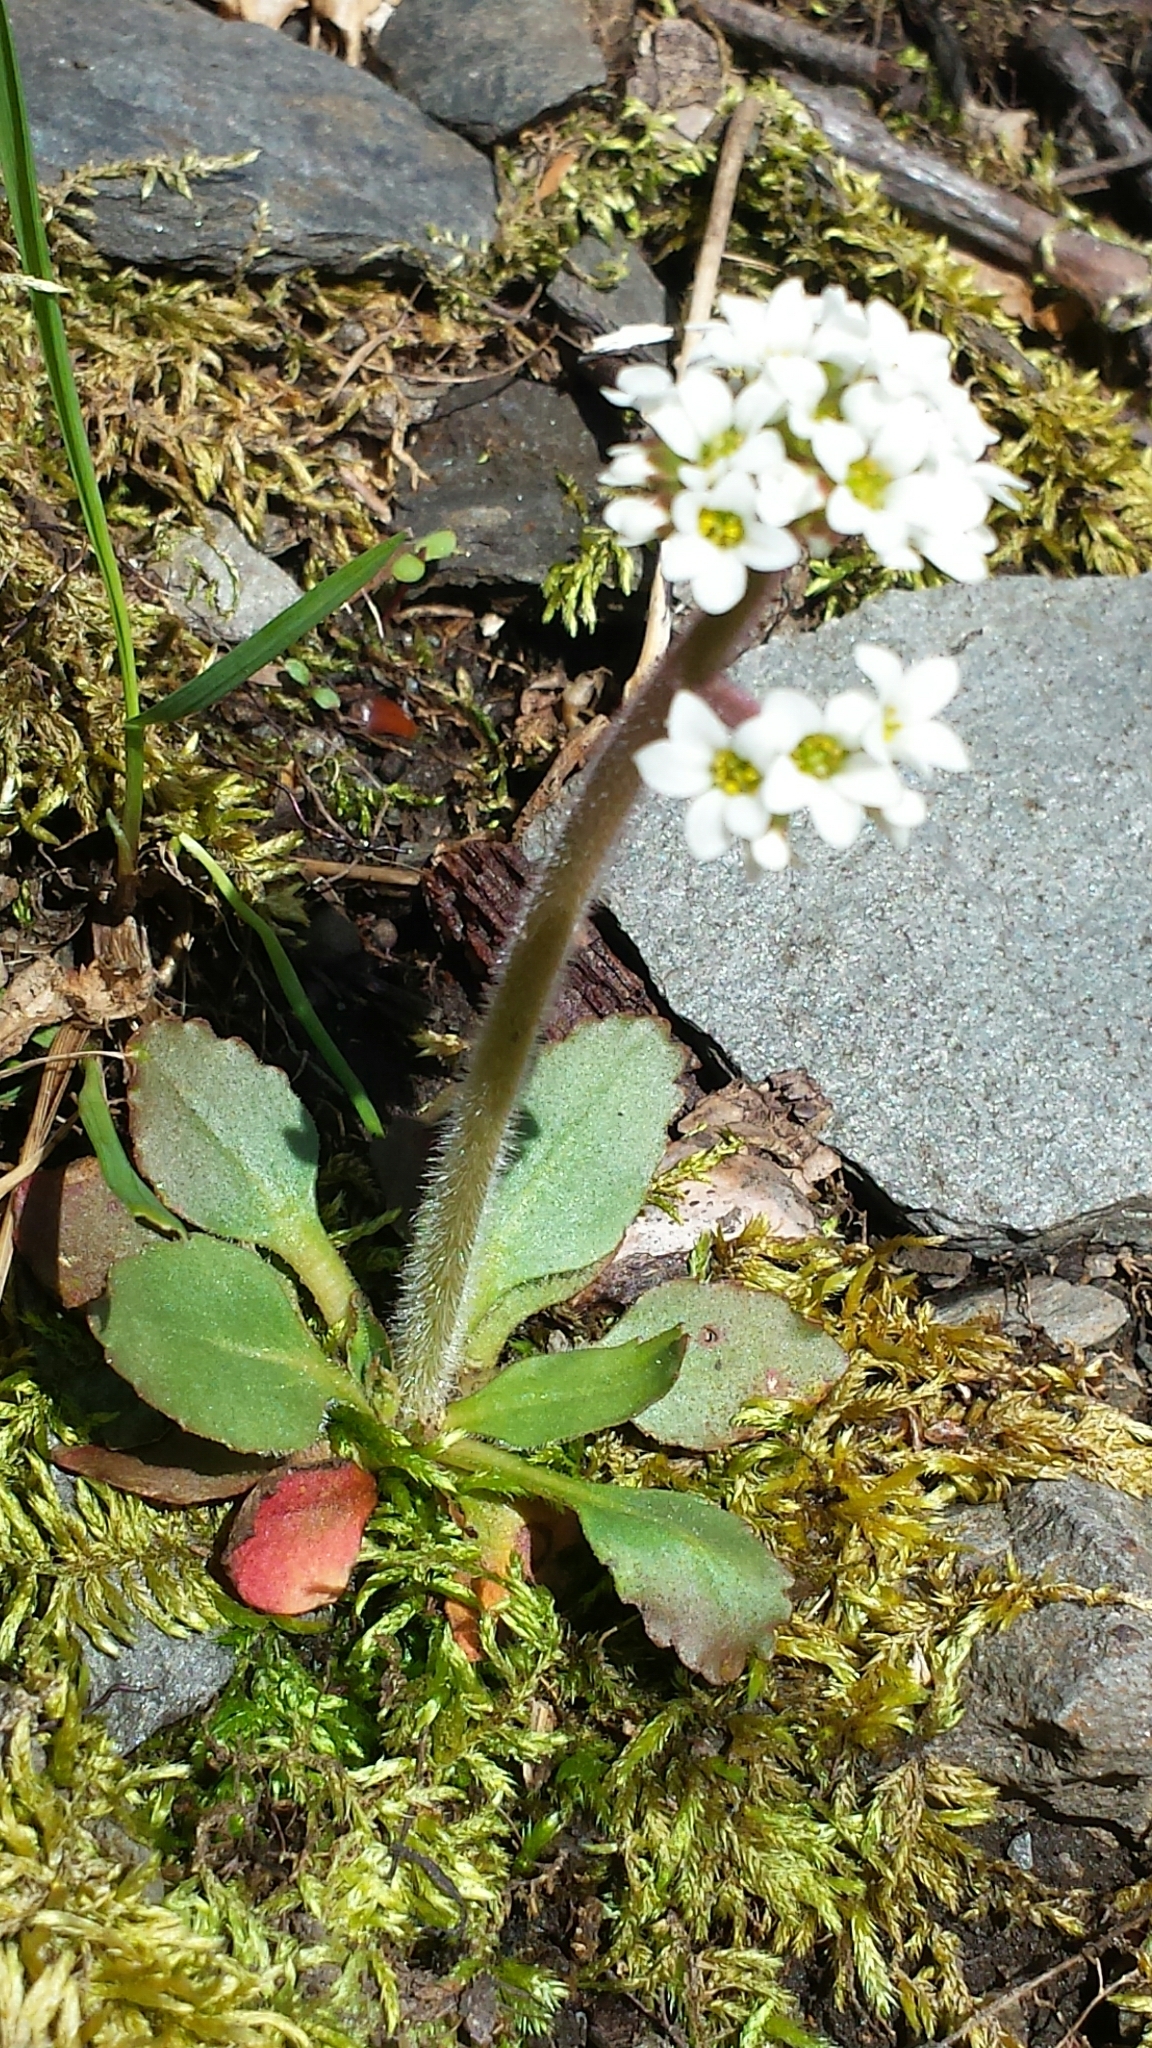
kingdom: Plantae
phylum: Tracheophyta
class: Magnoliopsida
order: Saxifragales
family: Saxifragaceae
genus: Micranthes
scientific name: Micranthes virginiensis
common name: Early saxifrage
